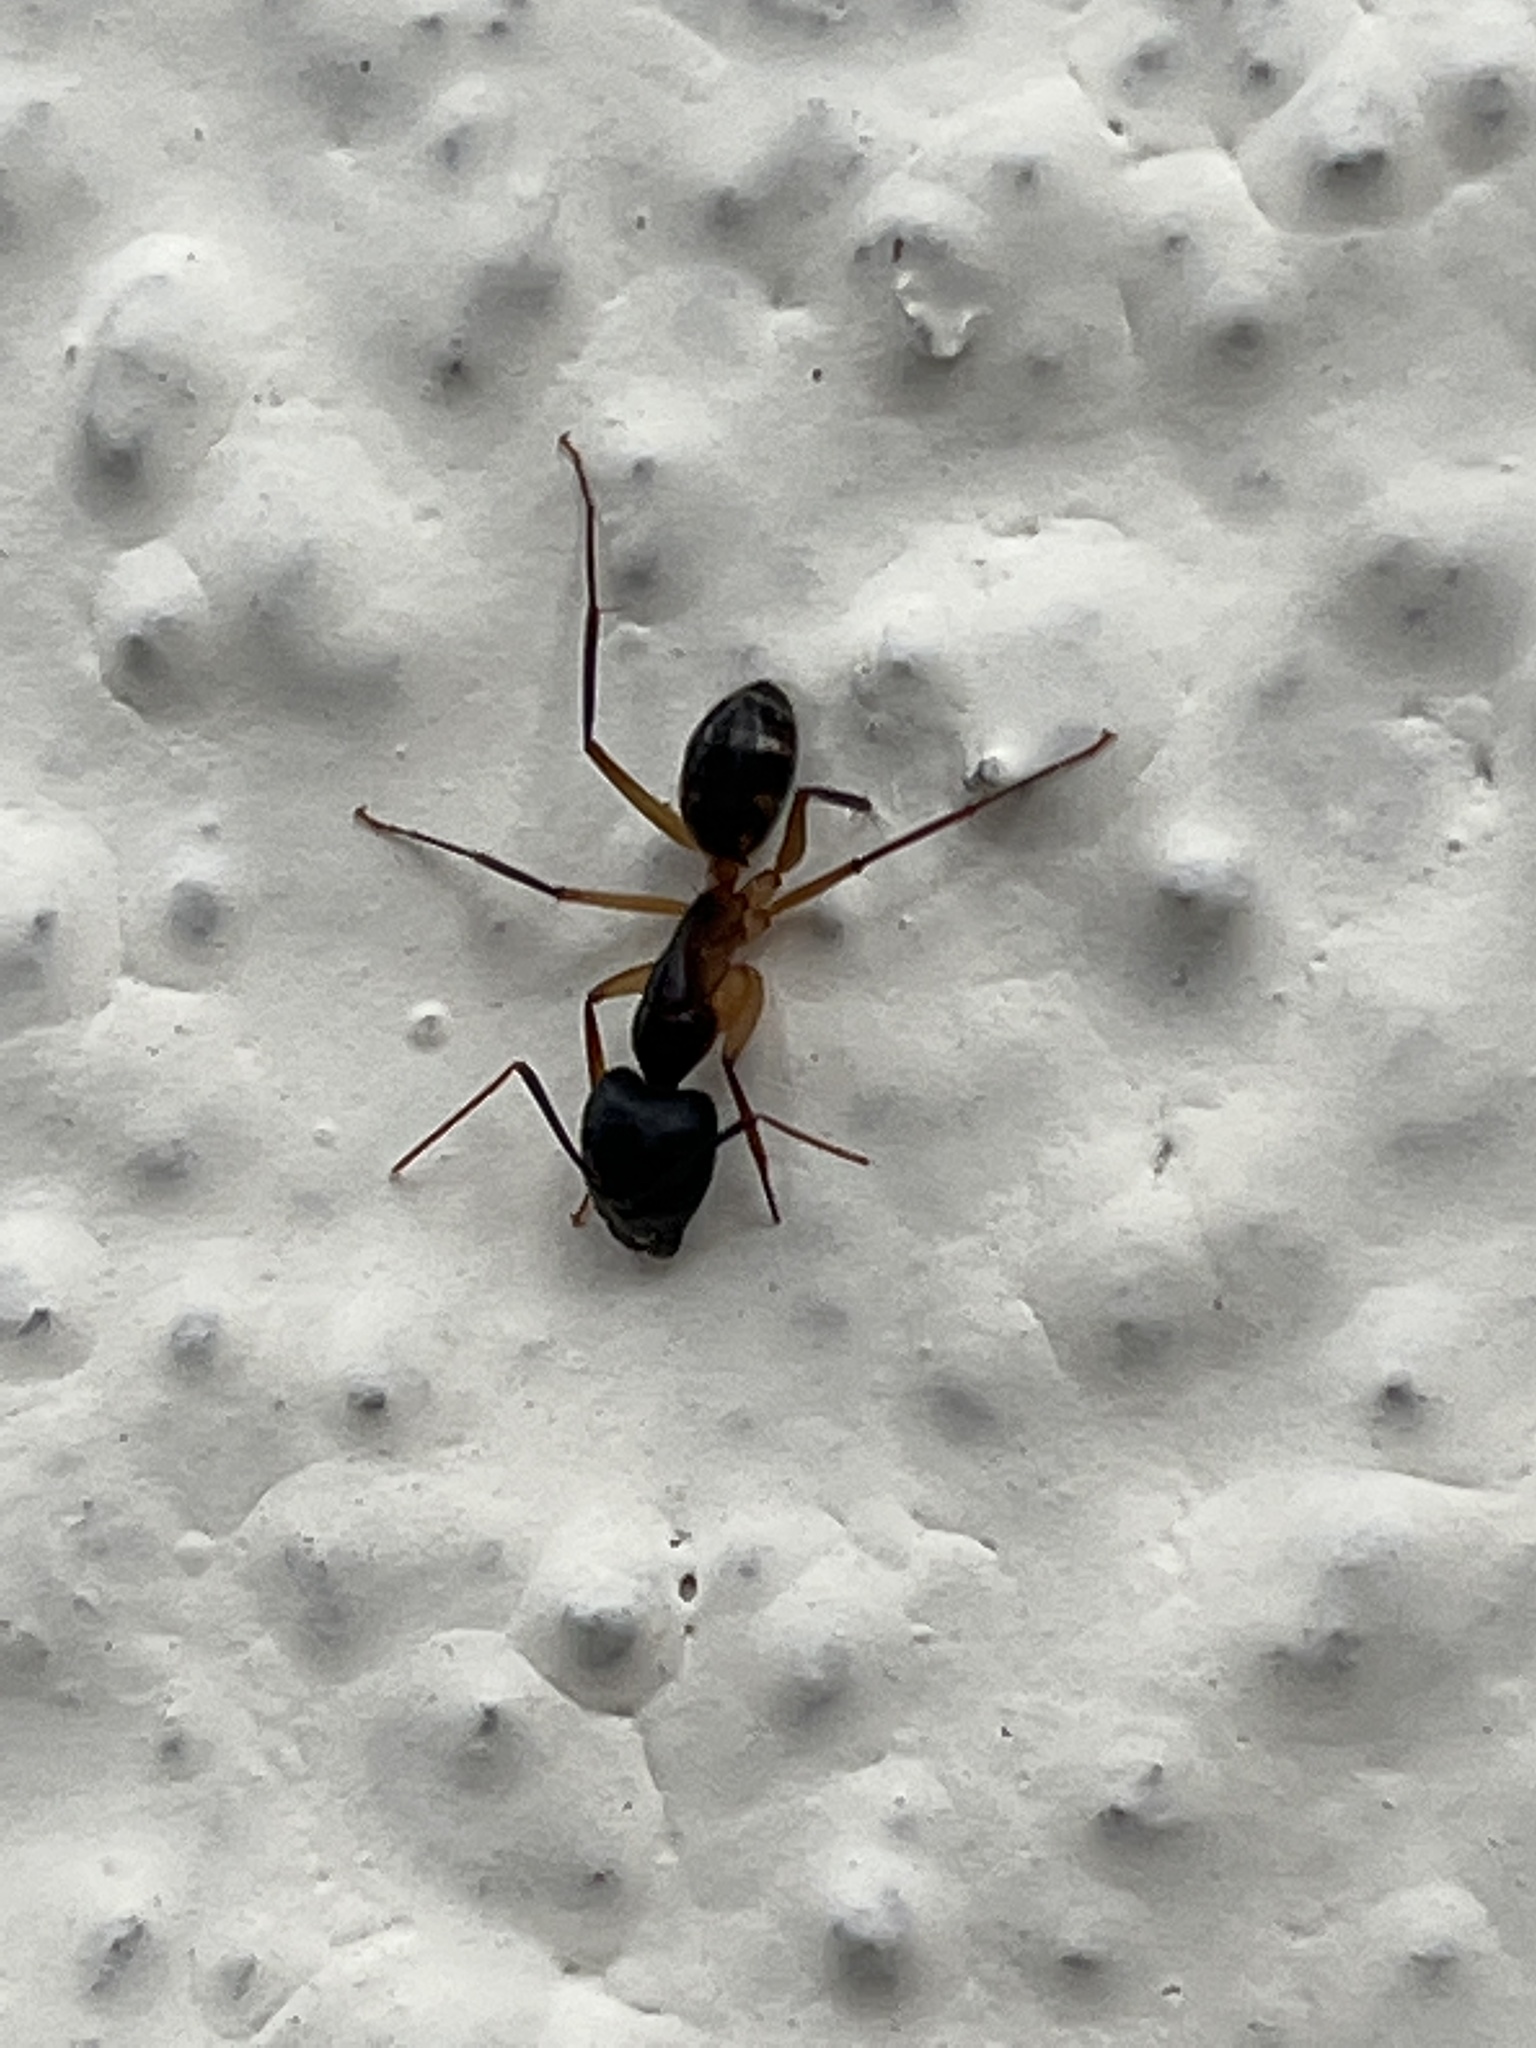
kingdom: Animalia
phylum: Arthropoda
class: Insecta
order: Hymenoptera
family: Formicidae
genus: Camponotus
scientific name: Camponotus maculatus
